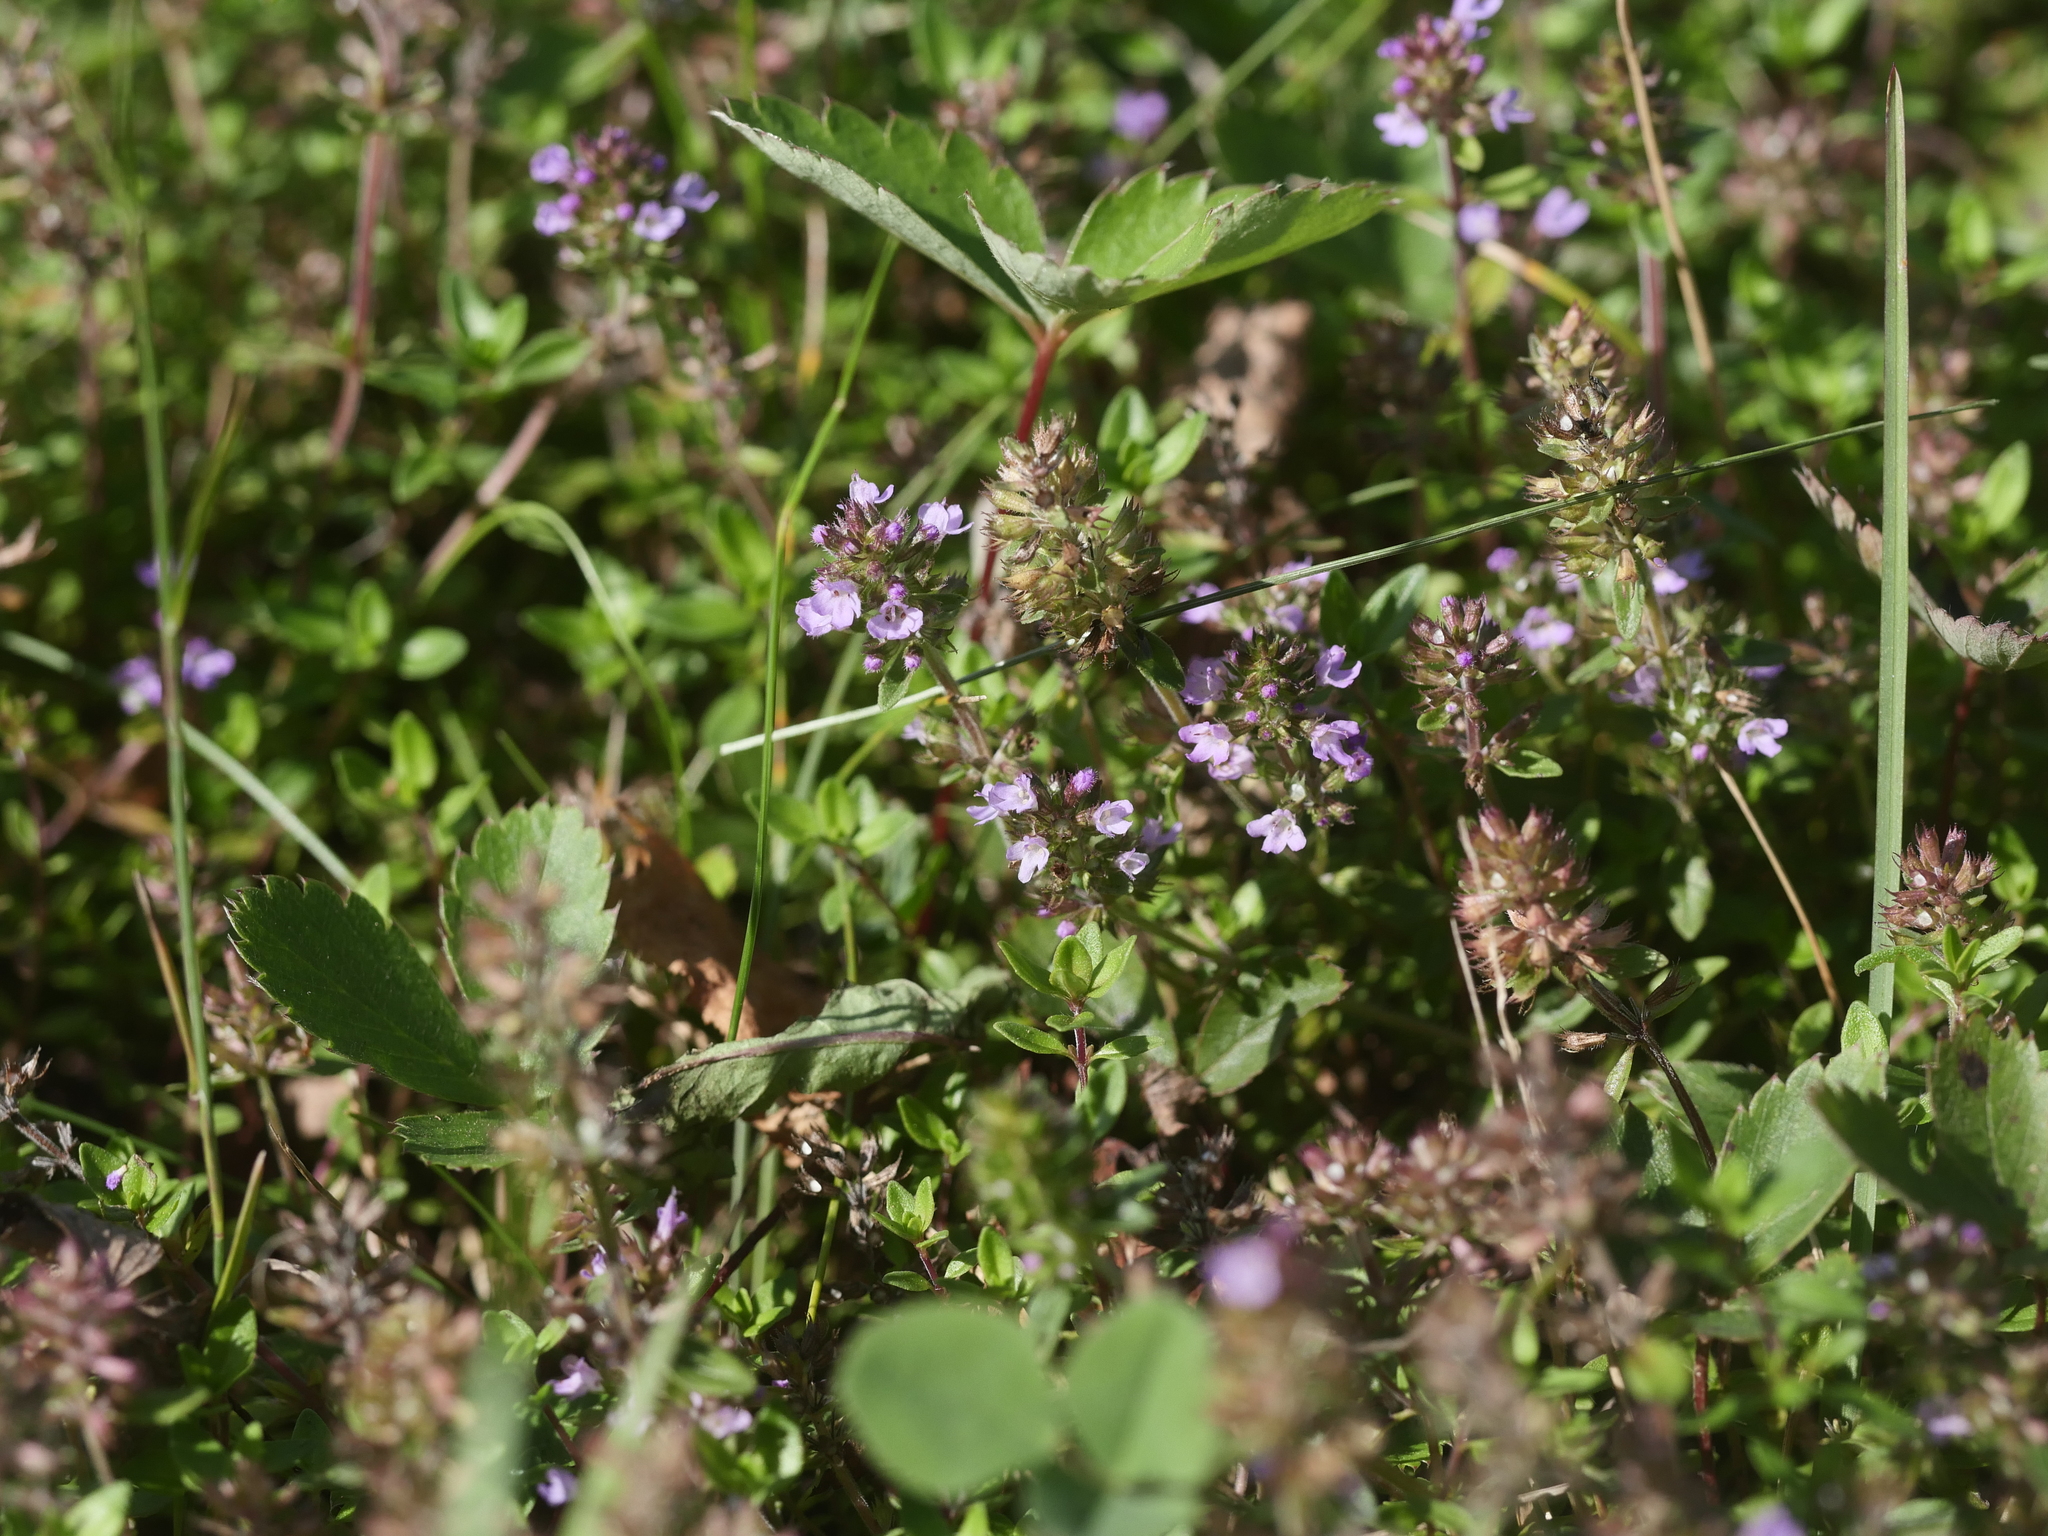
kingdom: Plantae
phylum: Tracheophyta
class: Magnoliopsida
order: Lamiales
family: Lamiaceae
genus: Thymus
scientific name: Thymus pulegioides
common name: Large thyme
